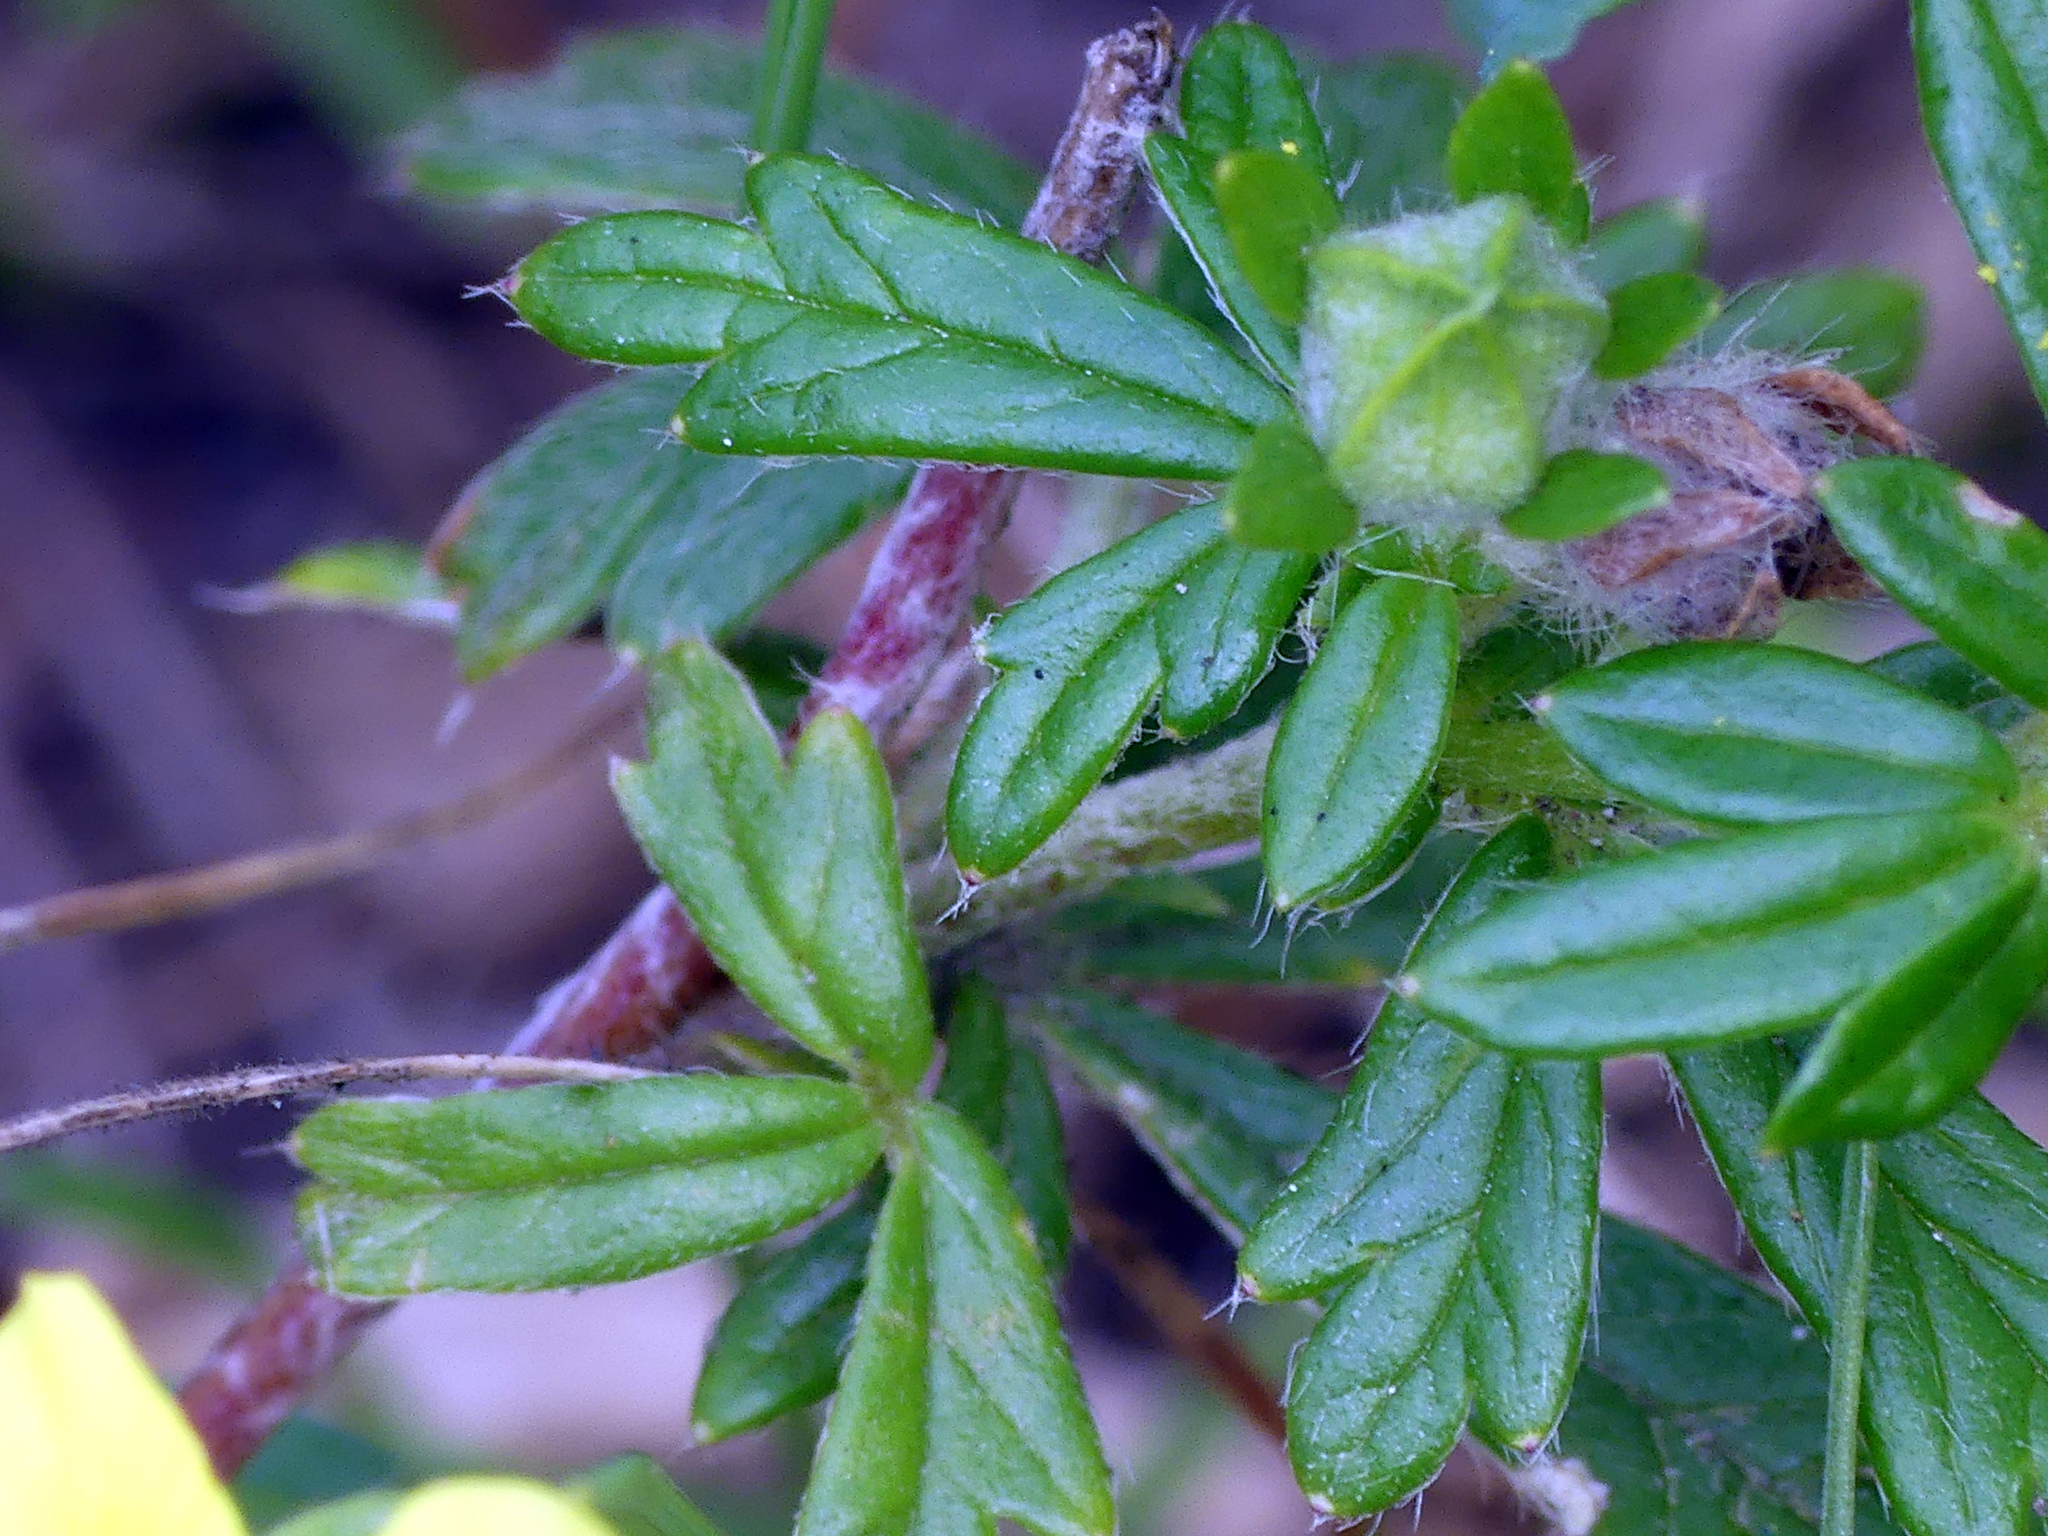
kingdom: Plantae
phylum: Tracheophyta
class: Magnoliopsida
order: Rosales
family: Rosaceae
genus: Potentilla
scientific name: Potentilla argentea
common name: Hoary cinquefoil
